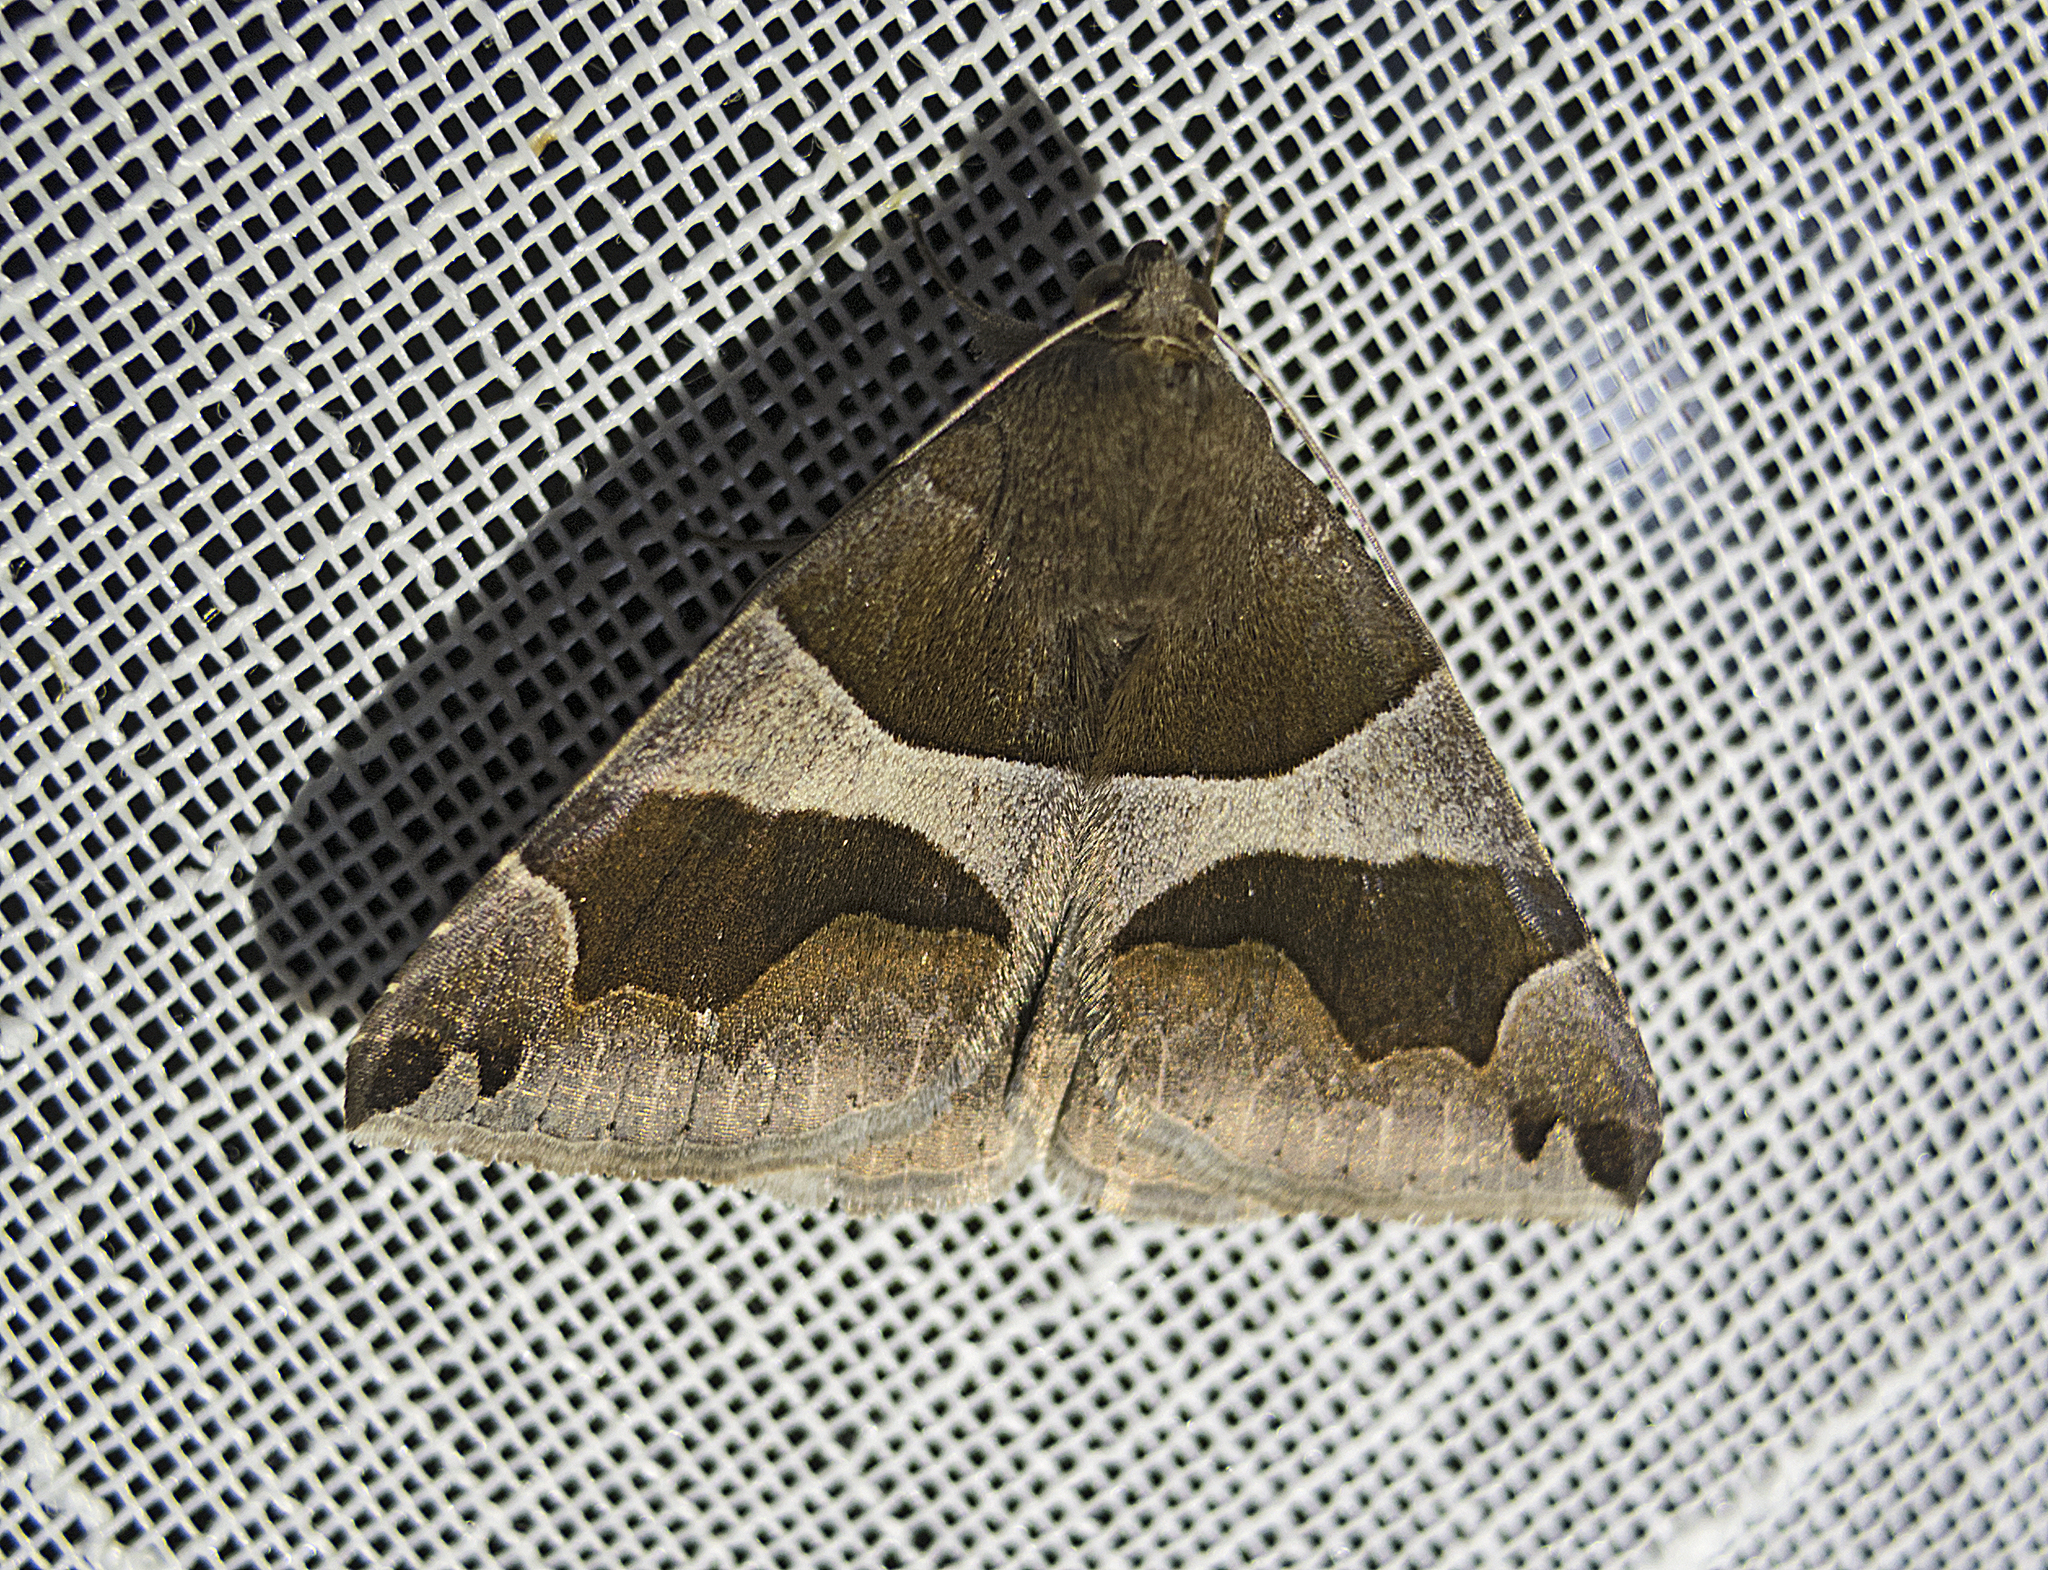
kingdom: Animalia
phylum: Arthropoda
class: Insecta
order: Lepidoptera
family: Erebidae
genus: Dysgonia
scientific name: Dysgonia algira
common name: Passenger
